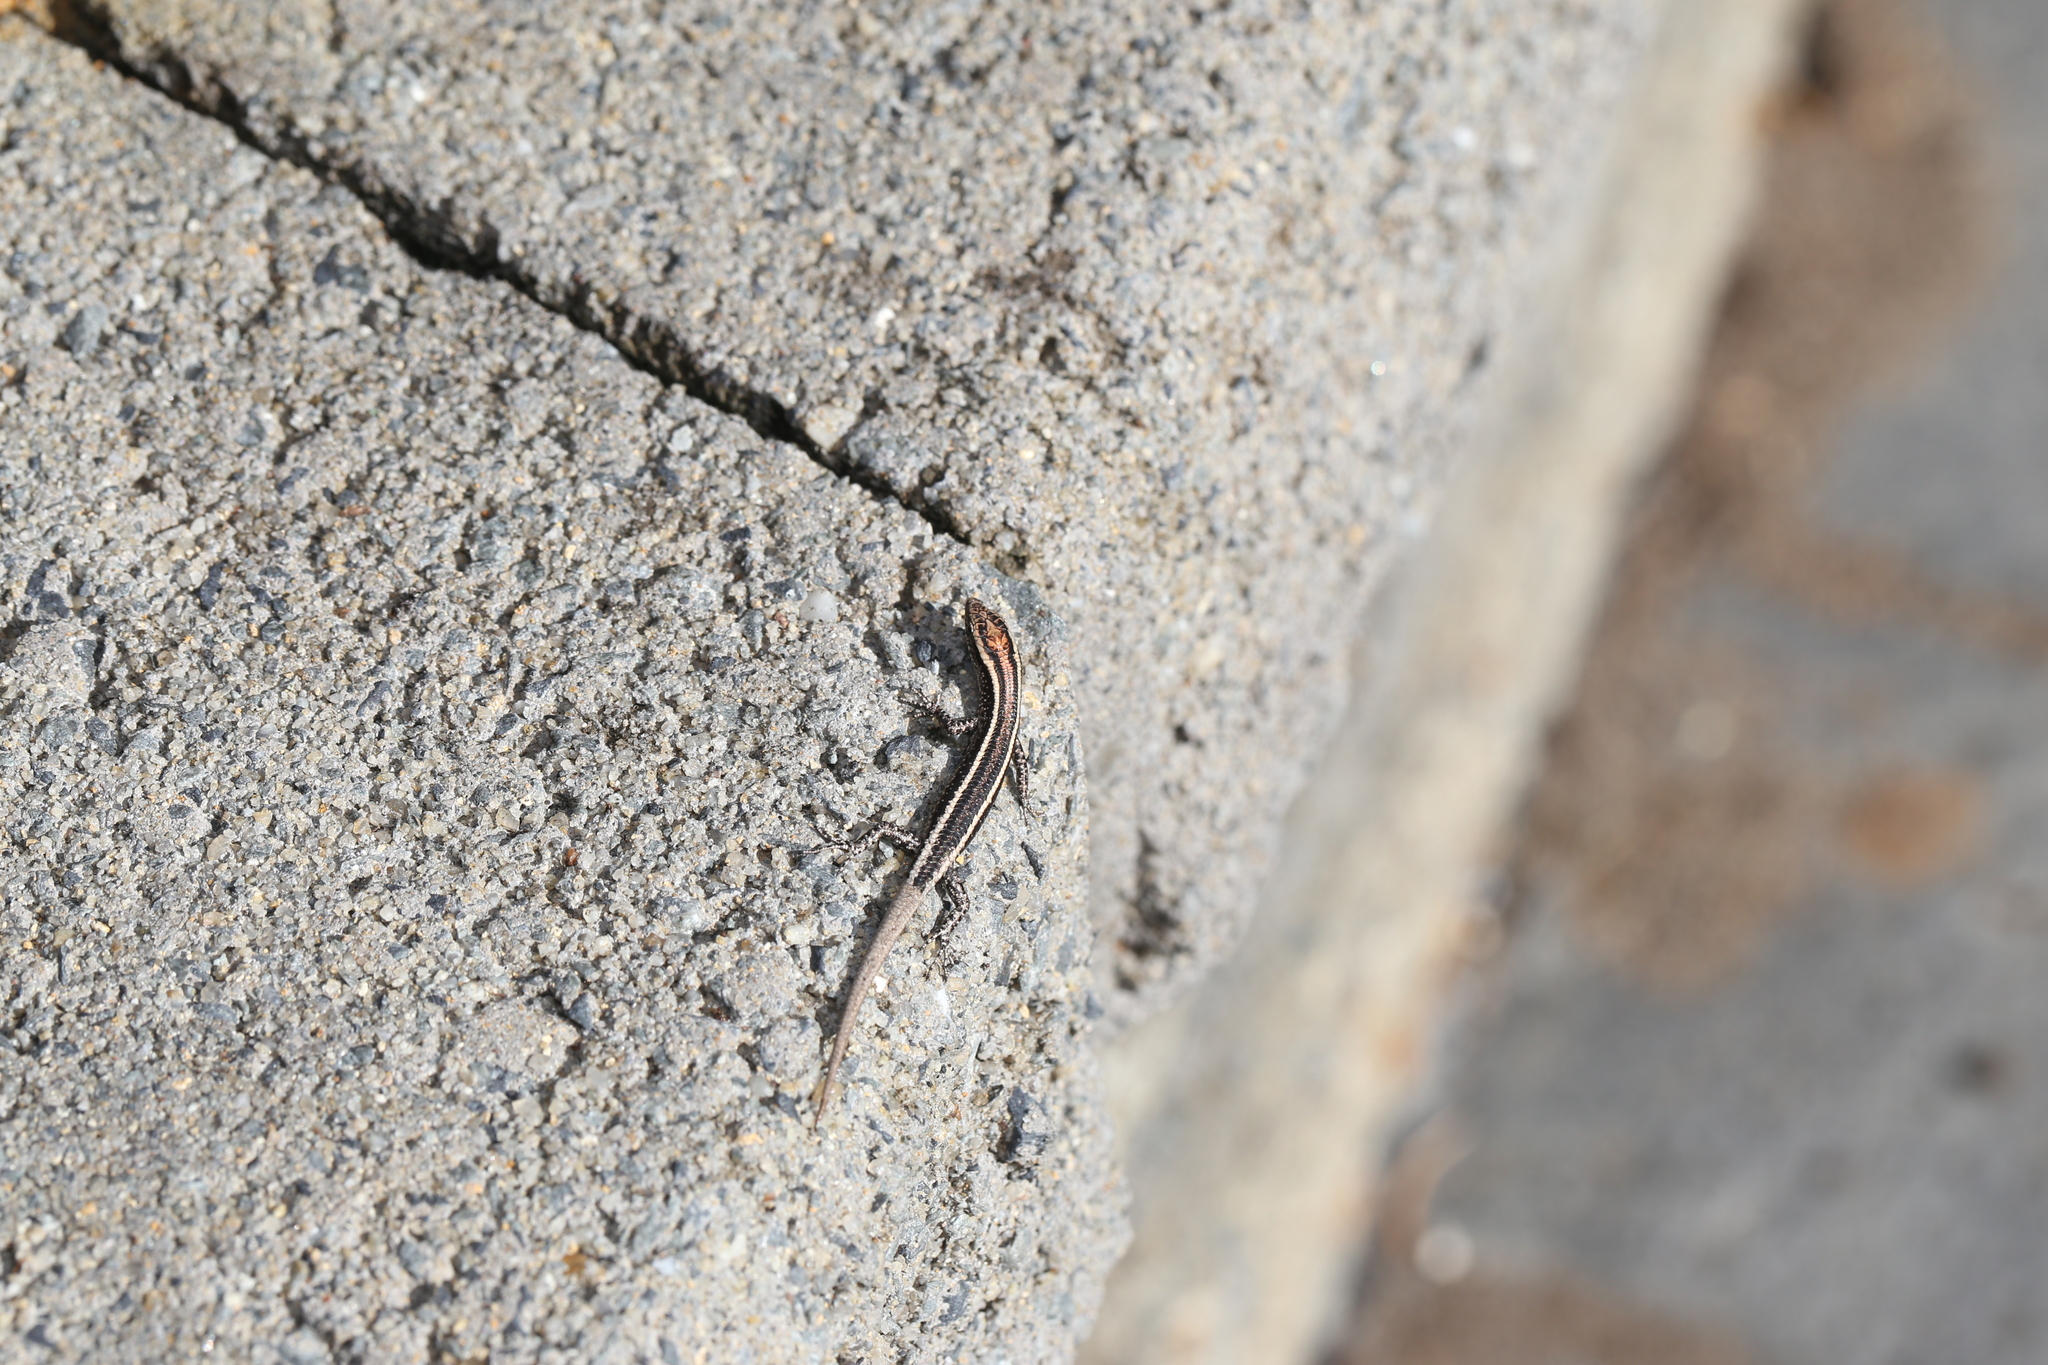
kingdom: Animalia
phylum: Chordata
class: Squamata
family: Scincidae
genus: Cryptoblepharus
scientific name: Cryptoblepharus pulcher
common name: Elegant snake-eyed skink
